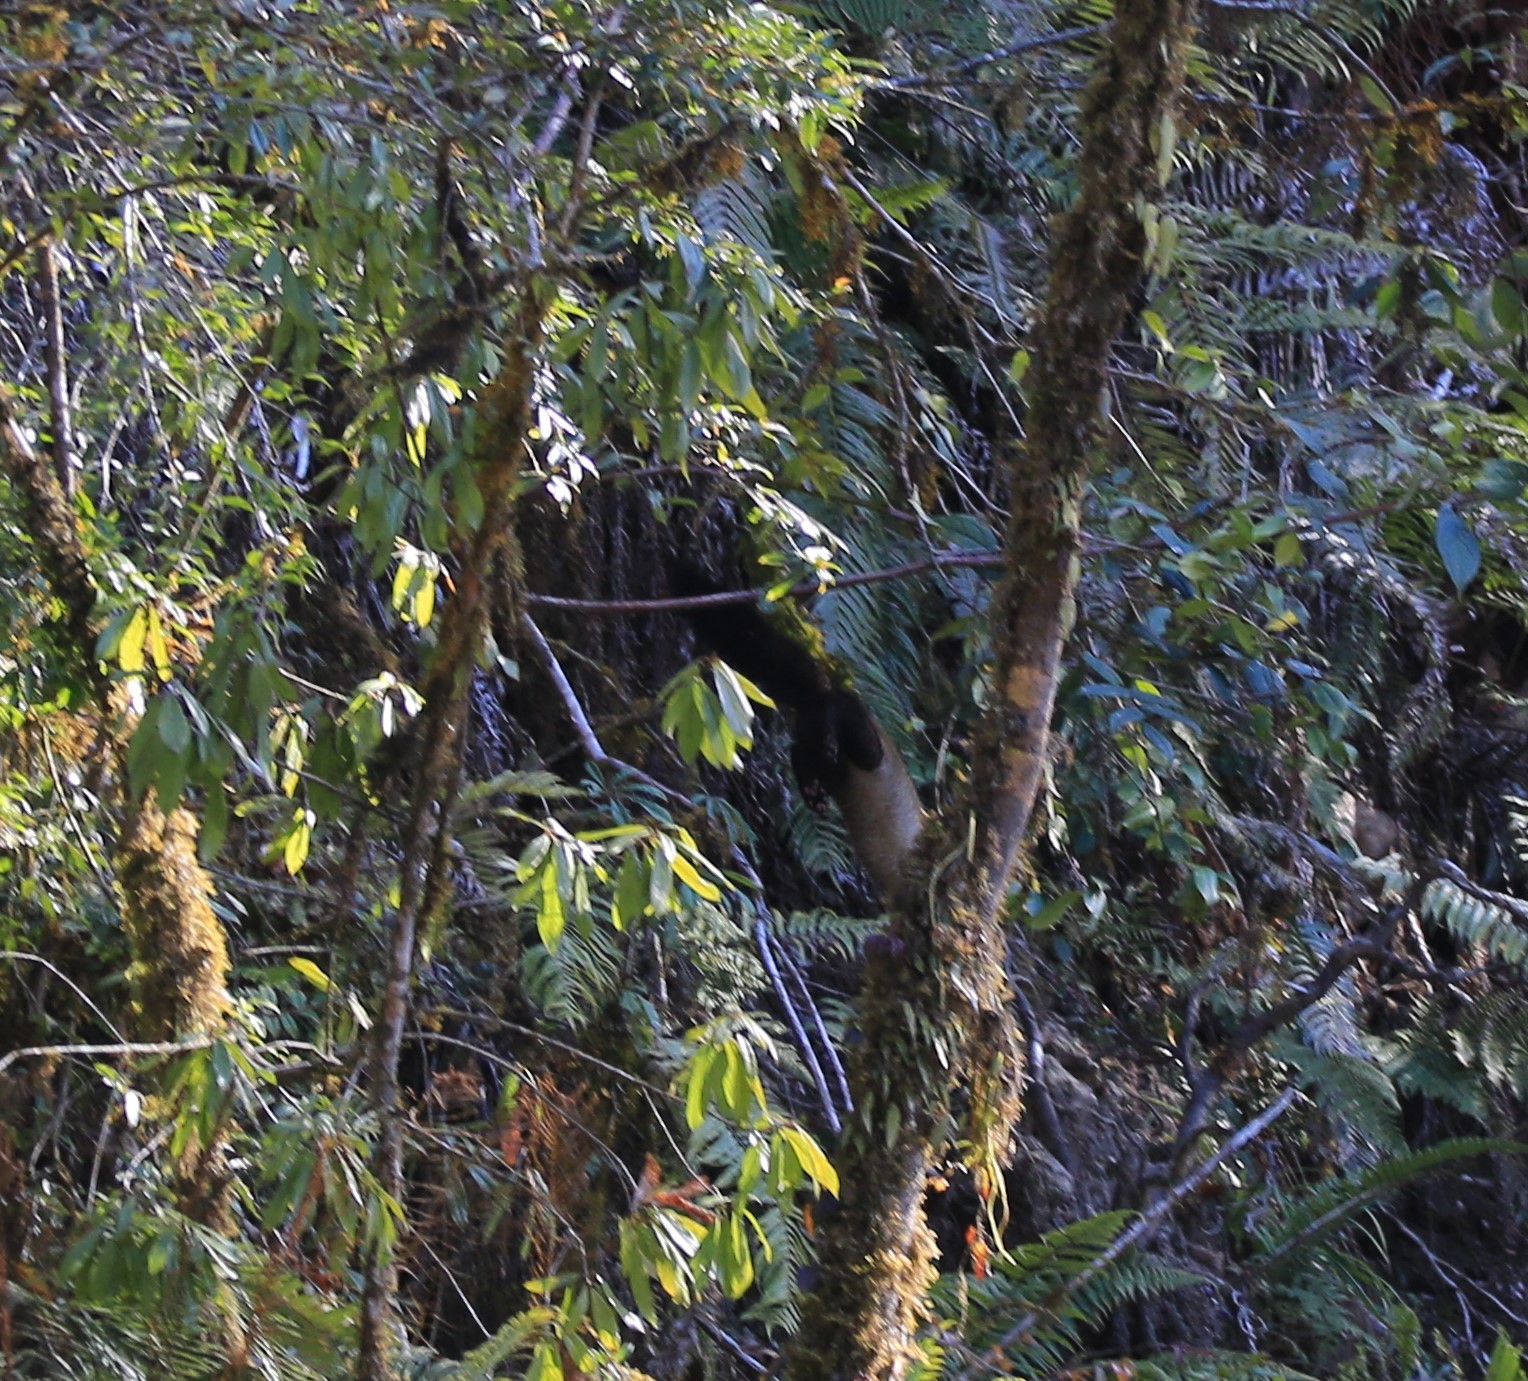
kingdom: Animalia
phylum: Chordata
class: Mammalia
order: Carnivora
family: Mustelidae
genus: Martes
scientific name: Martes flavigula
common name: Yellow-throated marten
